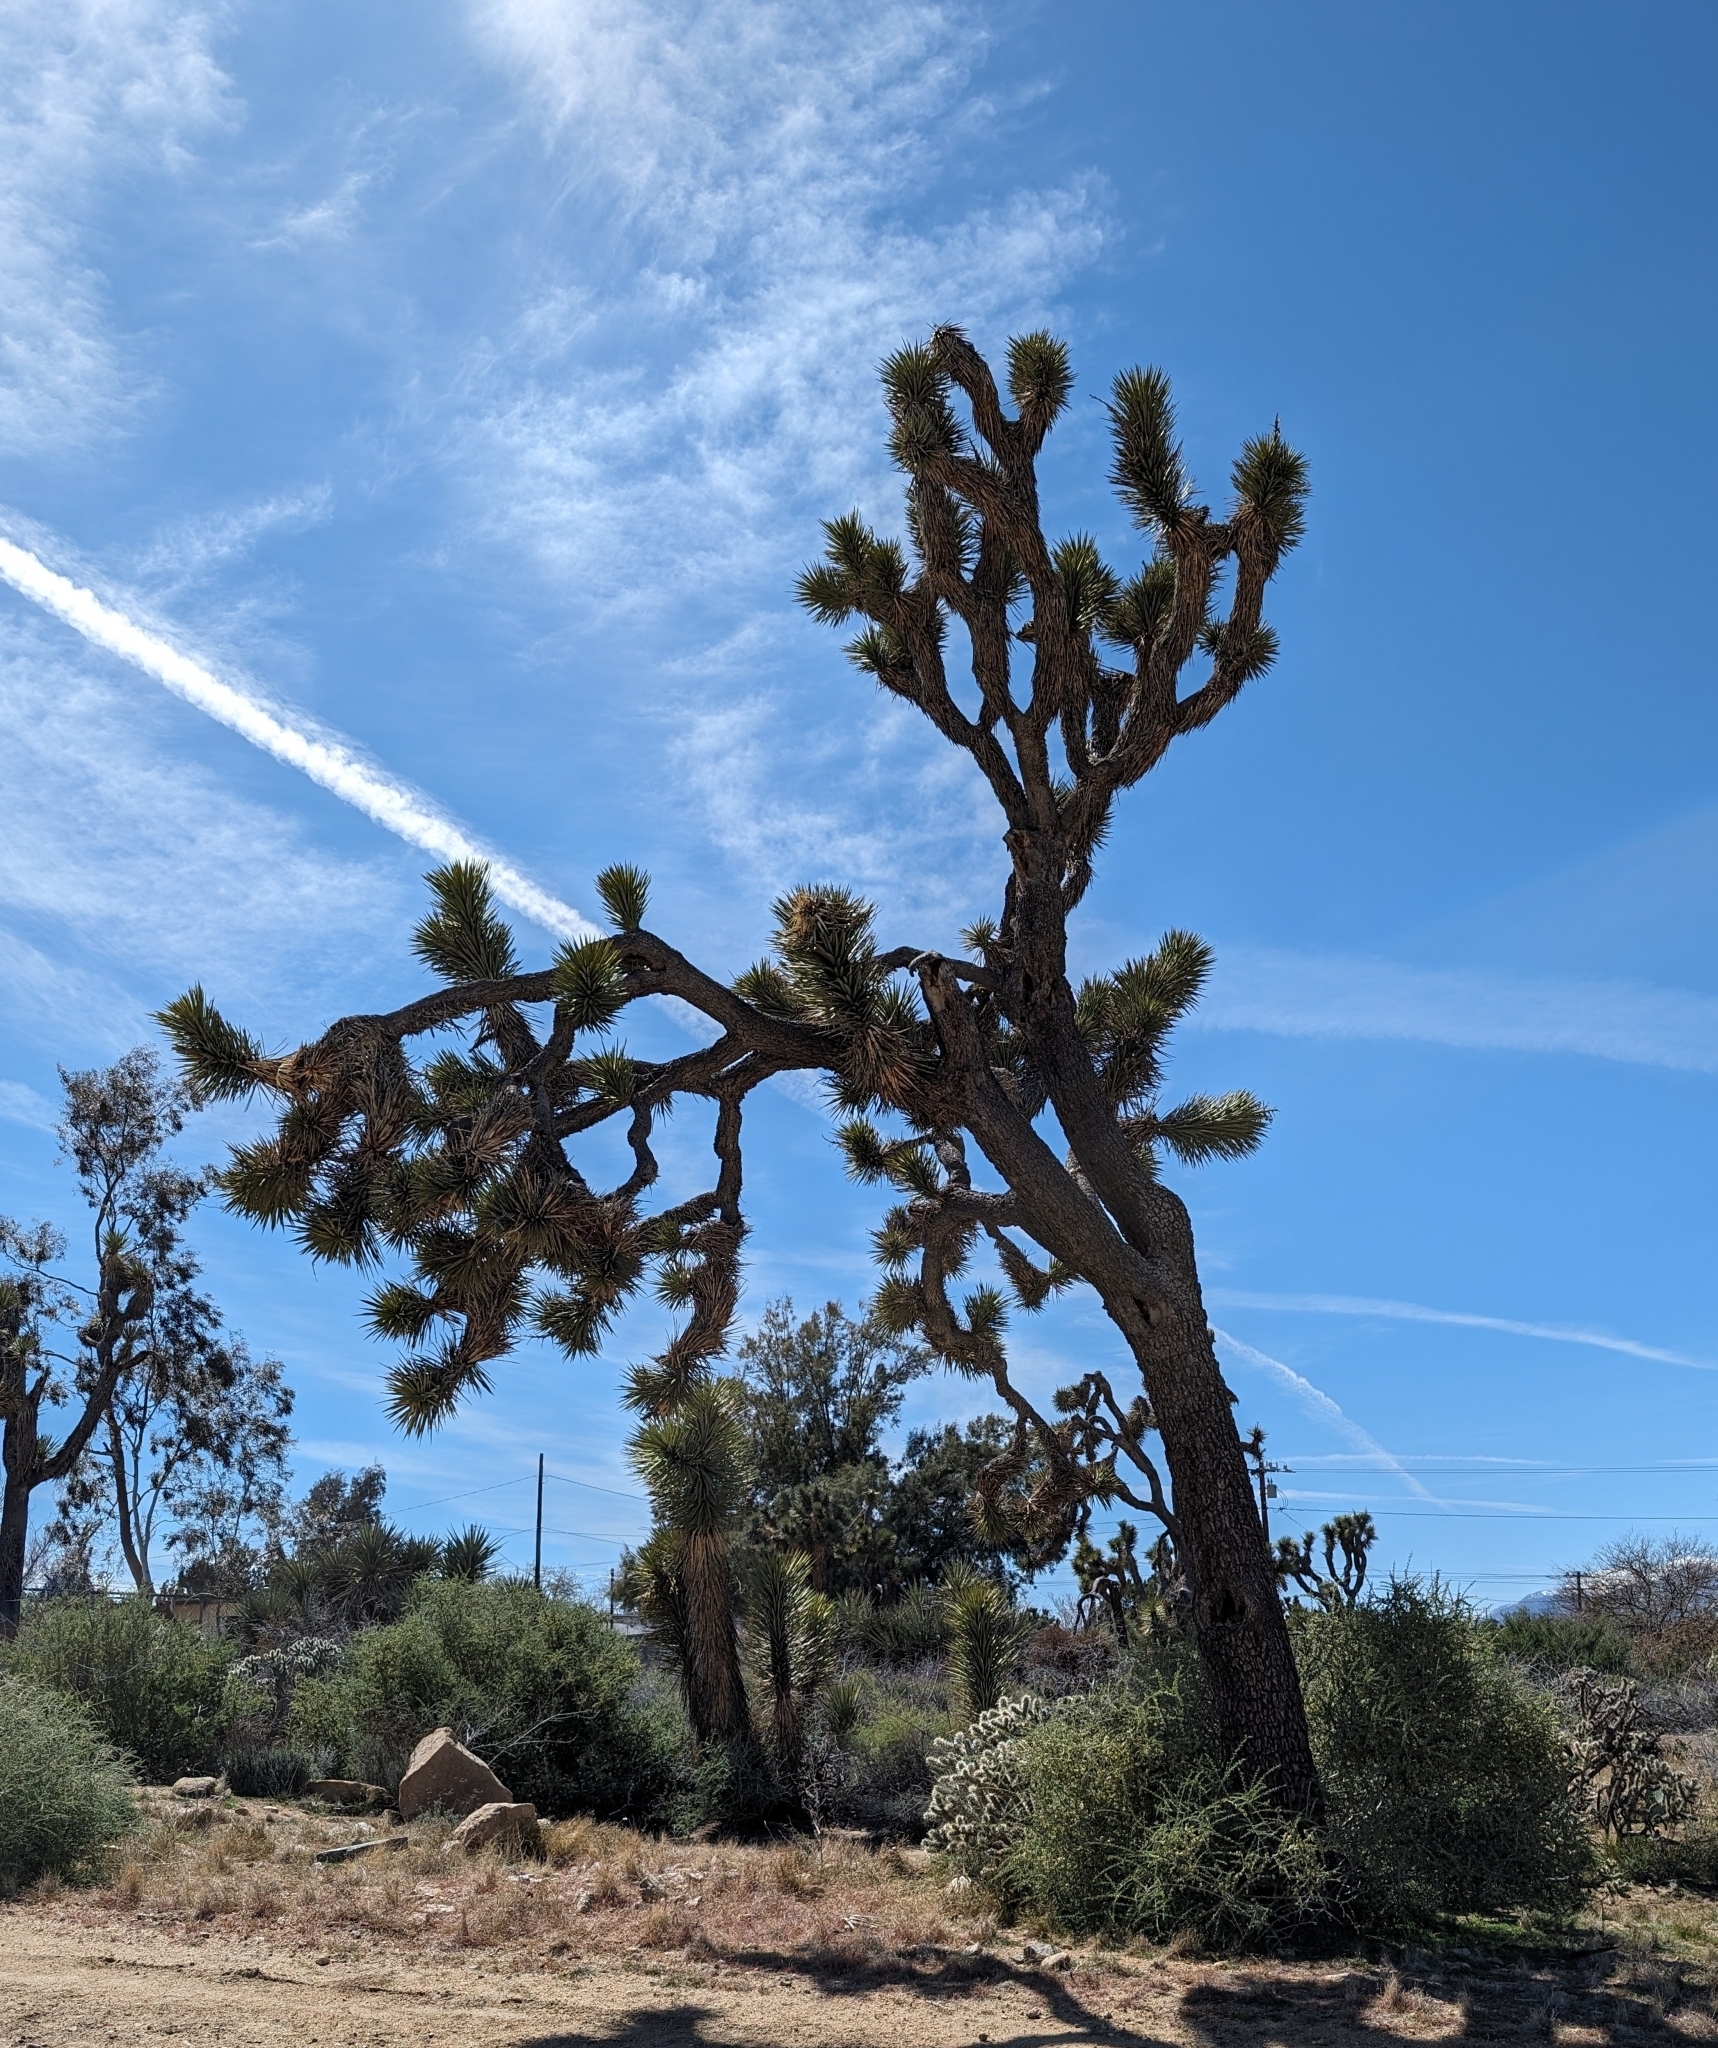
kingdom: Plantae
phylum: Tracheophyta
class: Liliopsida
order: Asparagales
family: Asparagaceae
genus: Yucca
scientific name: Yucca brevifolia
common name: Joshua tree
